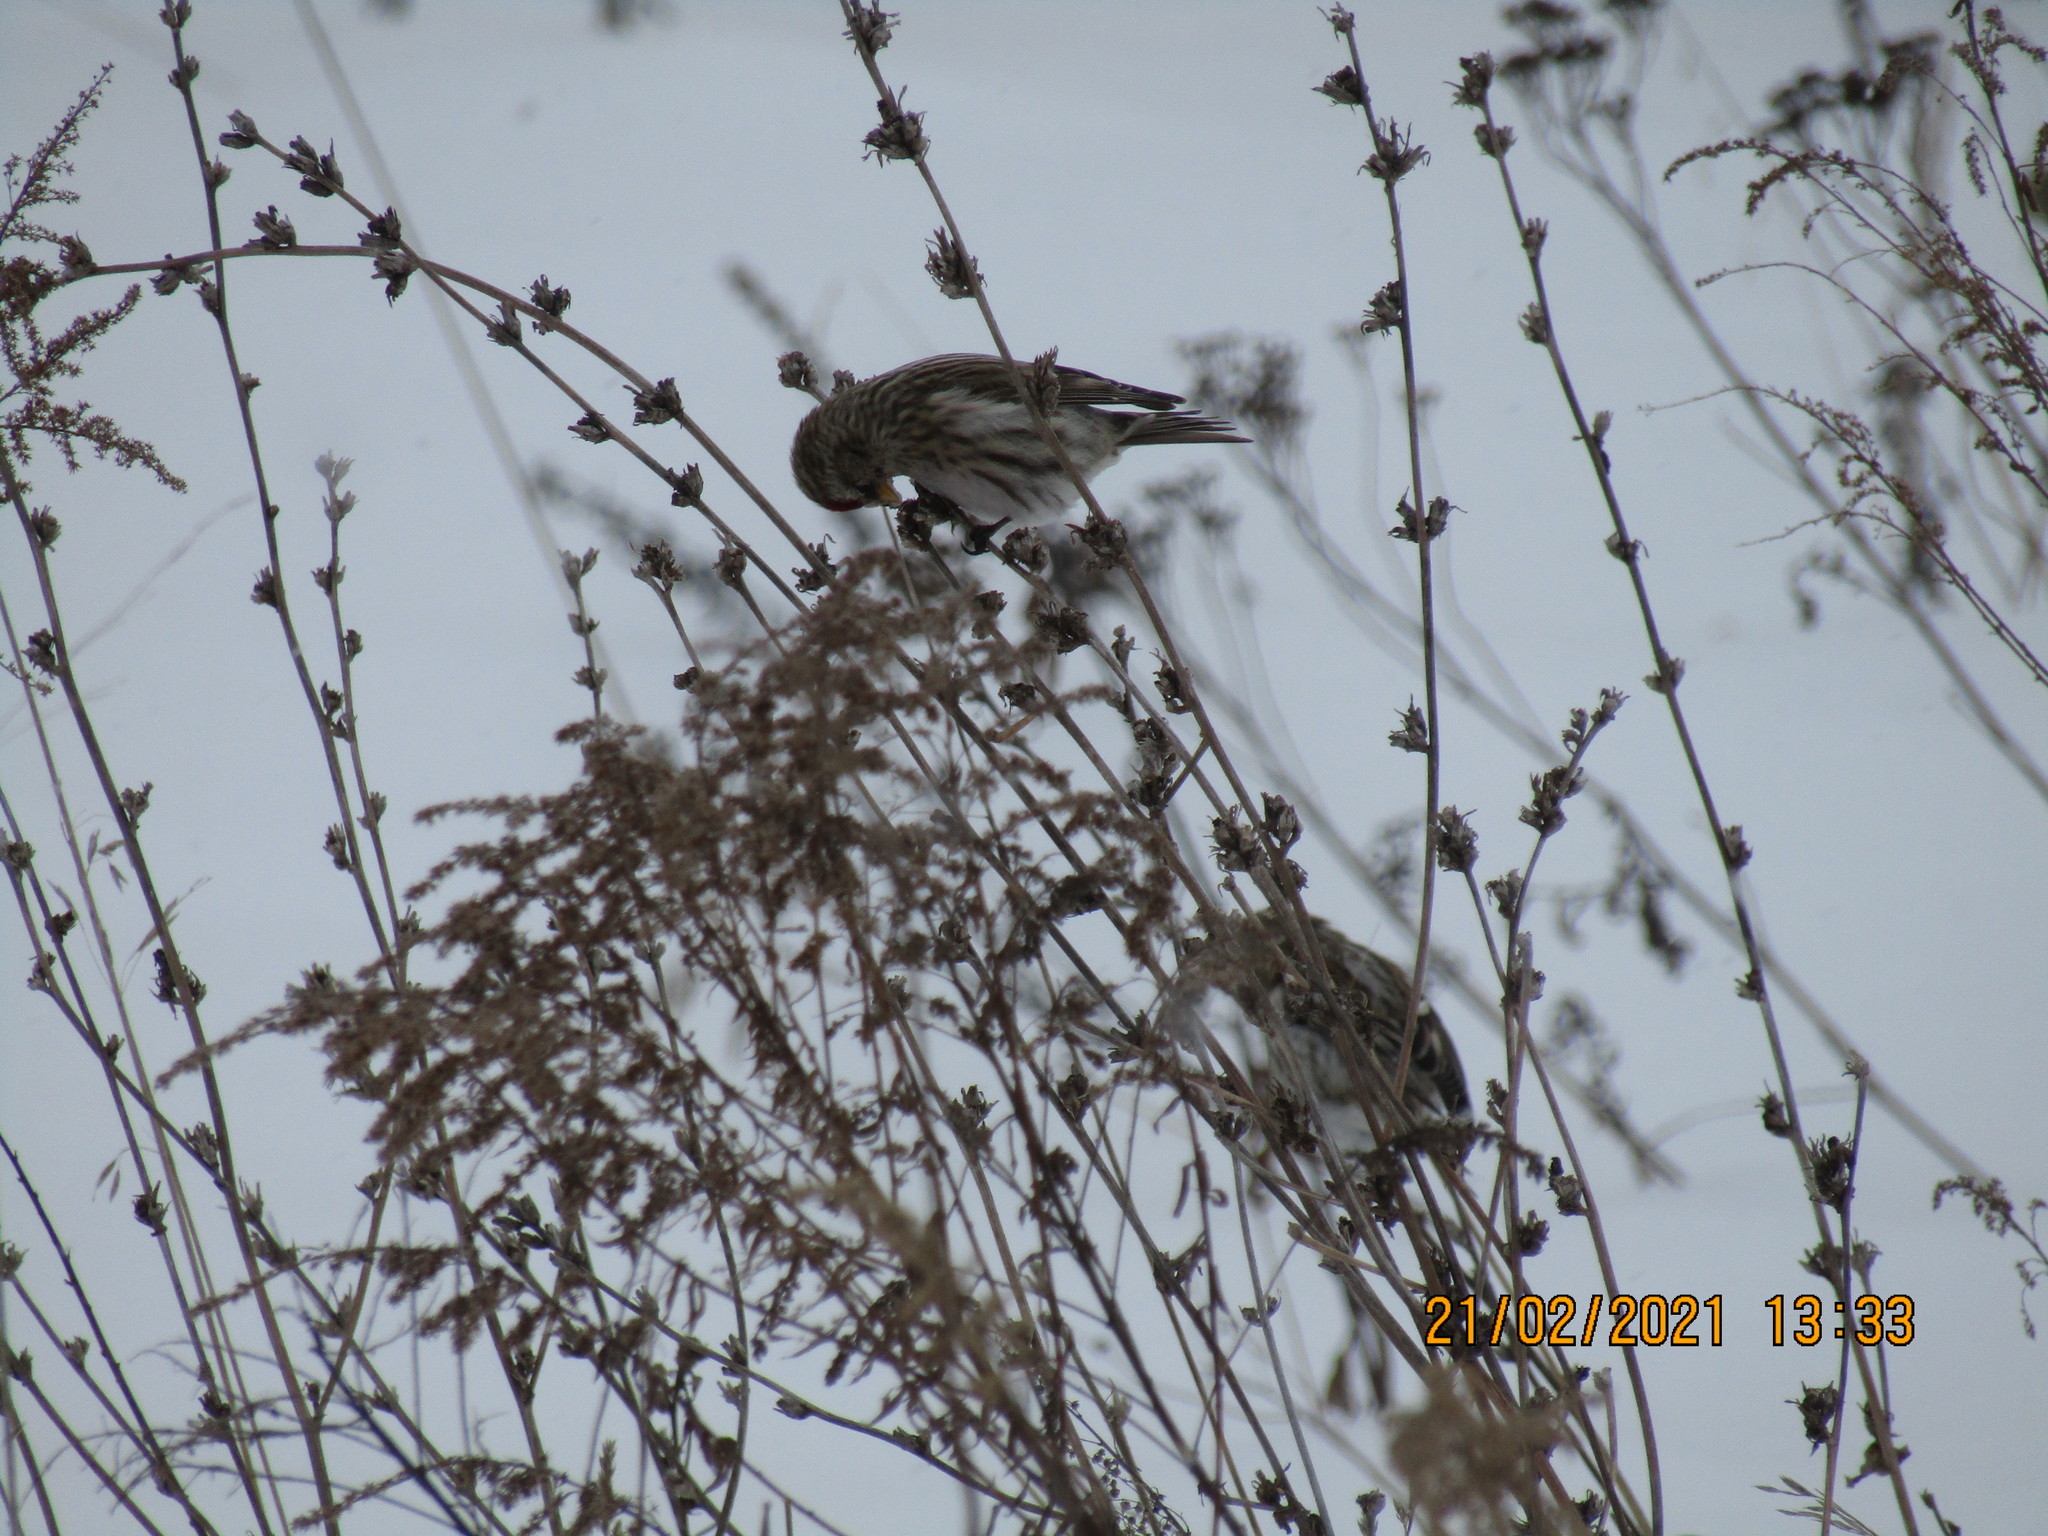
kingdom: Animalia
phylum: Chordata
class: Aves
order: Passeriformes
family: Fringillidae
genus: Acanthis
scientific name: Acanthis flammea
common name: Common redpoll
